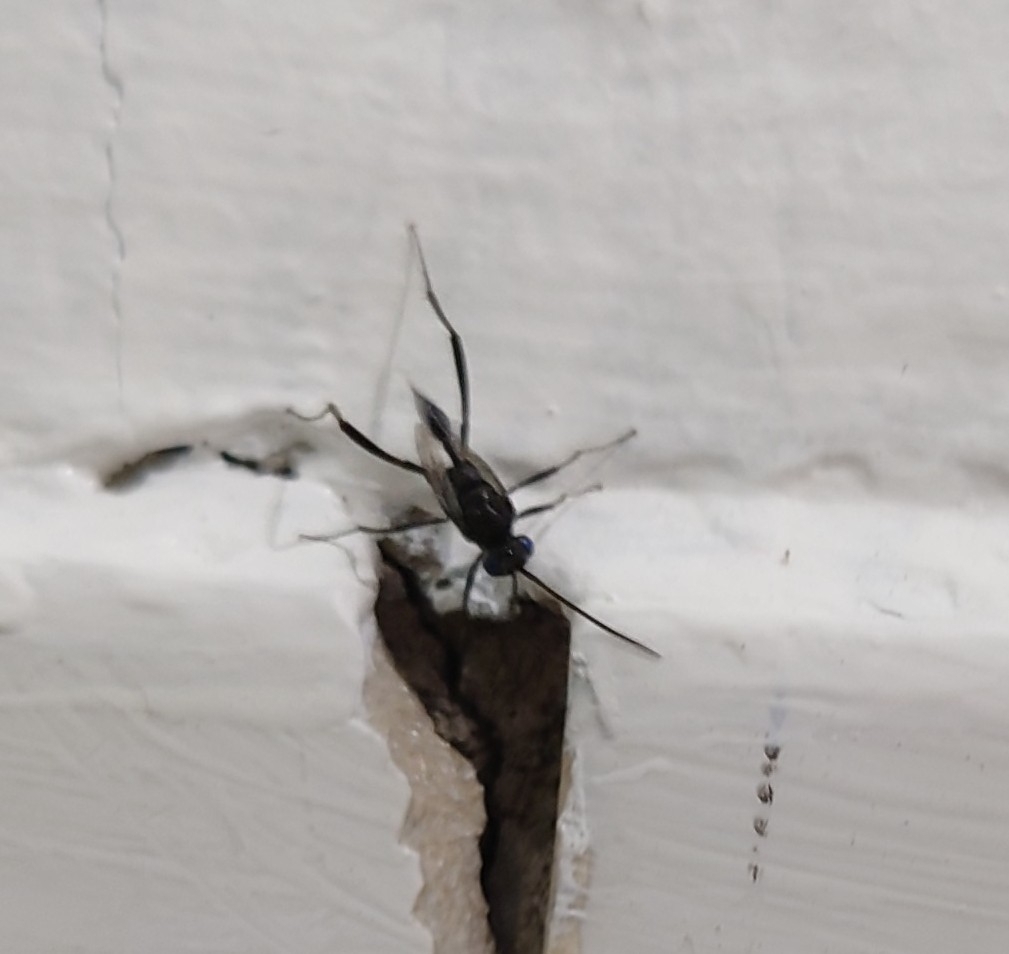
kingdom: Animalia
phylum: Arthropoda
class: Insecta
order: Hymenoptera
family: Evaniidae
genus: Evania
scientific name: Evania appendigaster
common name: Ensign wasp
